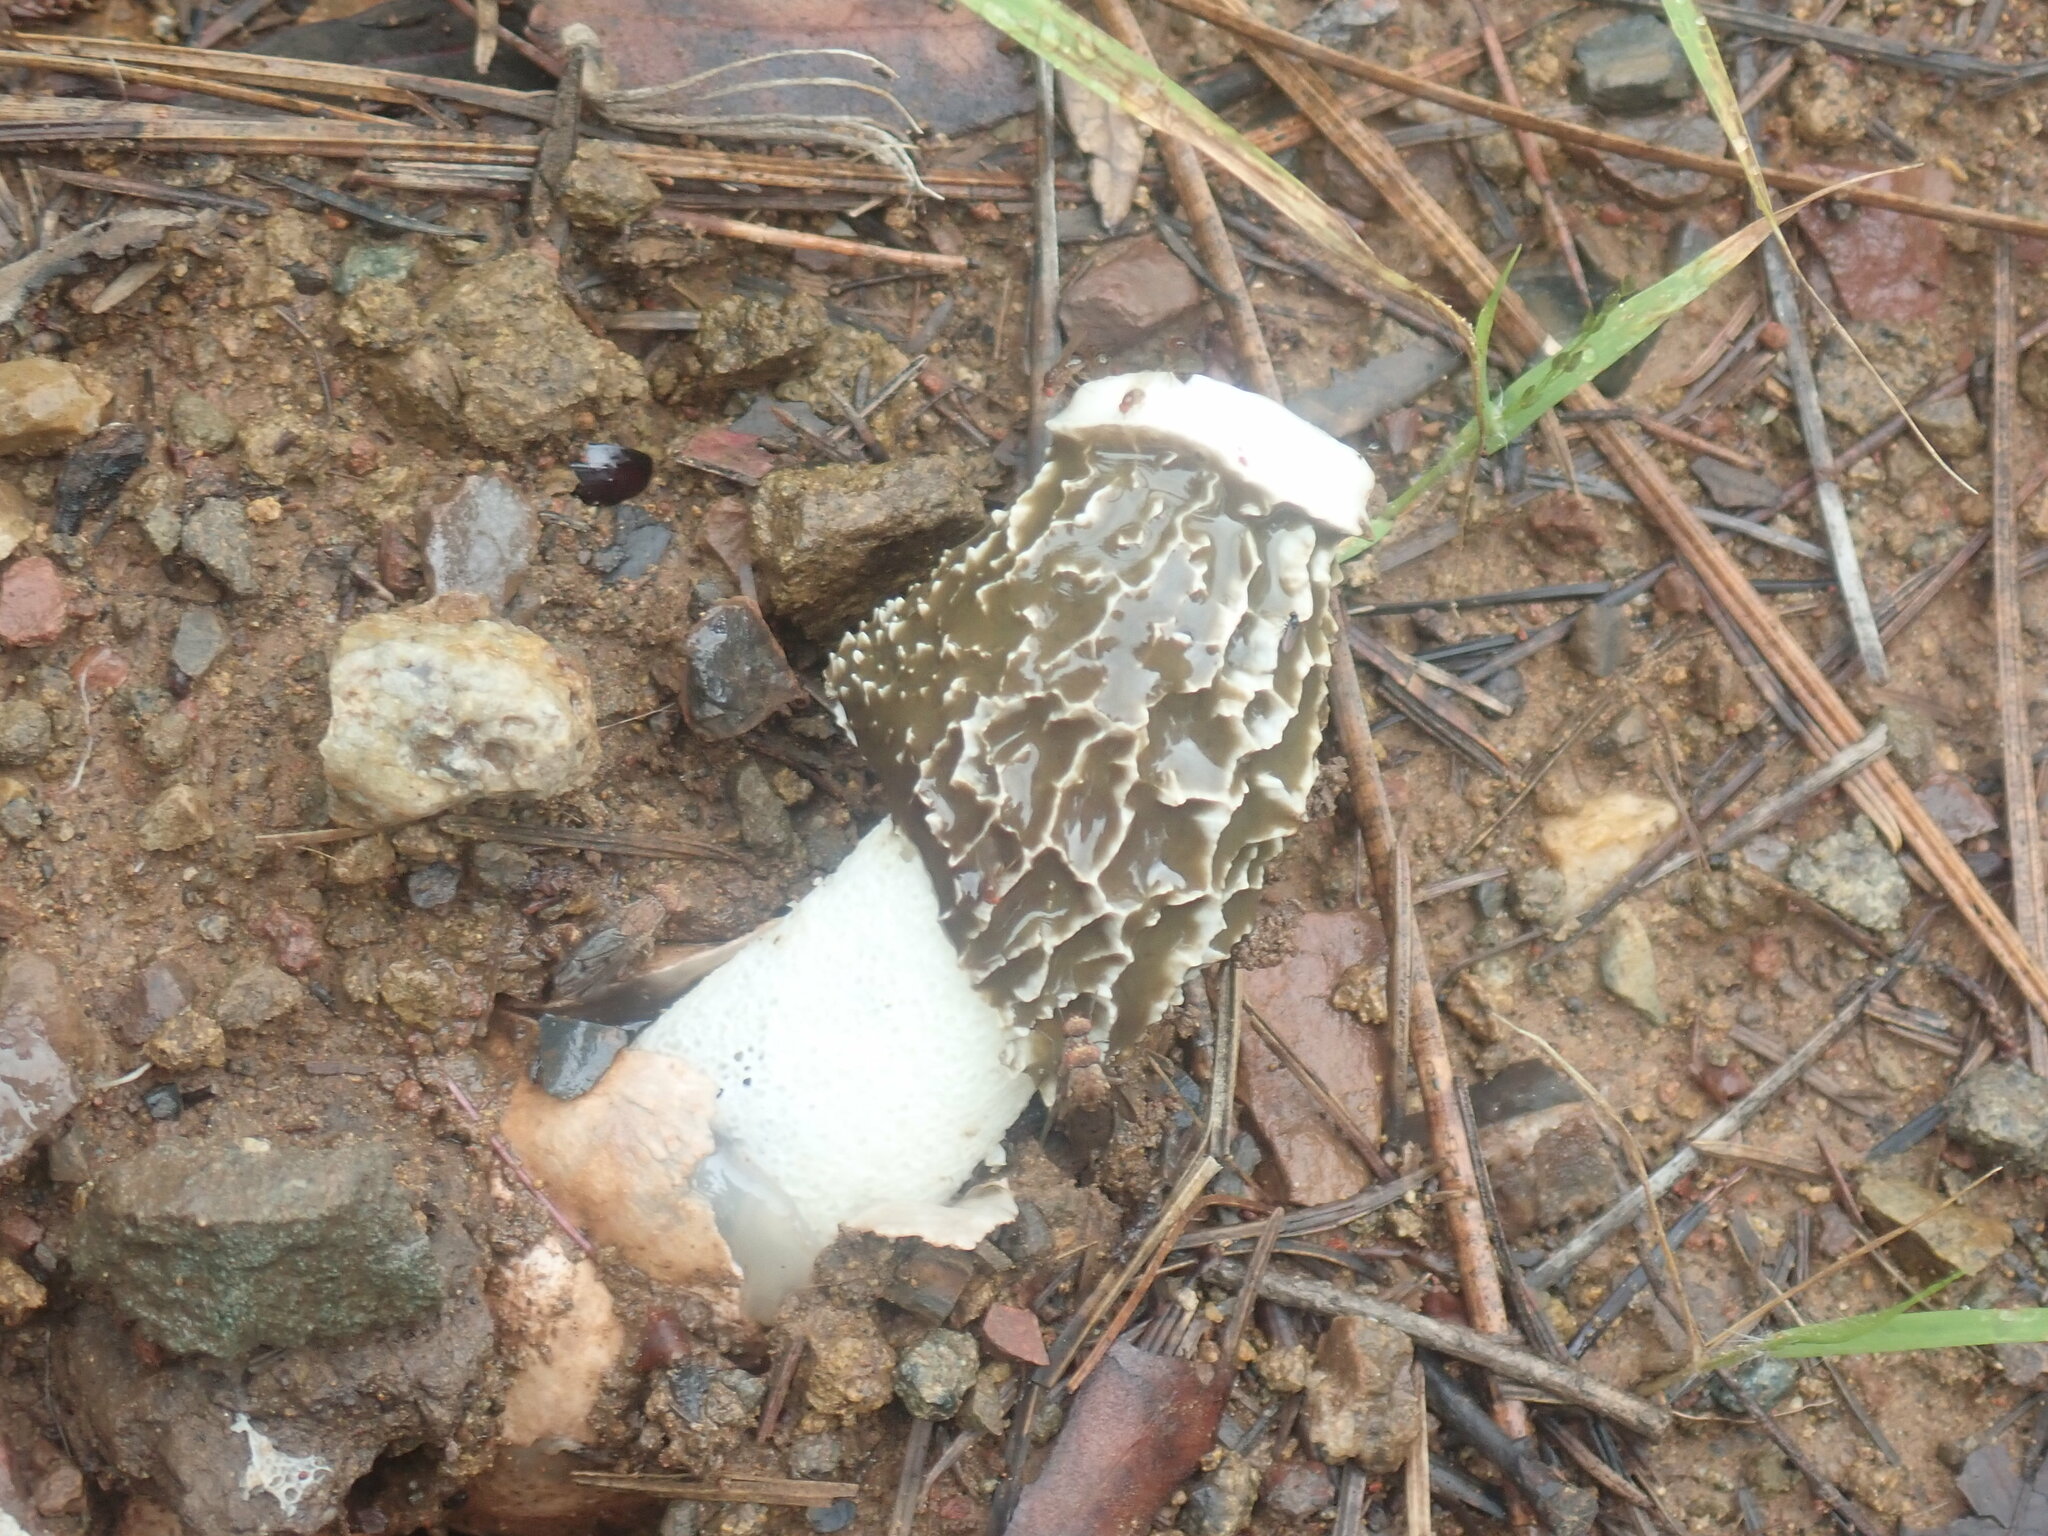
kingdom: Fungi
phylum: Basidiomycota
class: Agaricomycetes
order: Phallales
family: Phallaceae
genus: Phallus
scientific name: Phallus hadriani
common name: Sand stinkhorn
